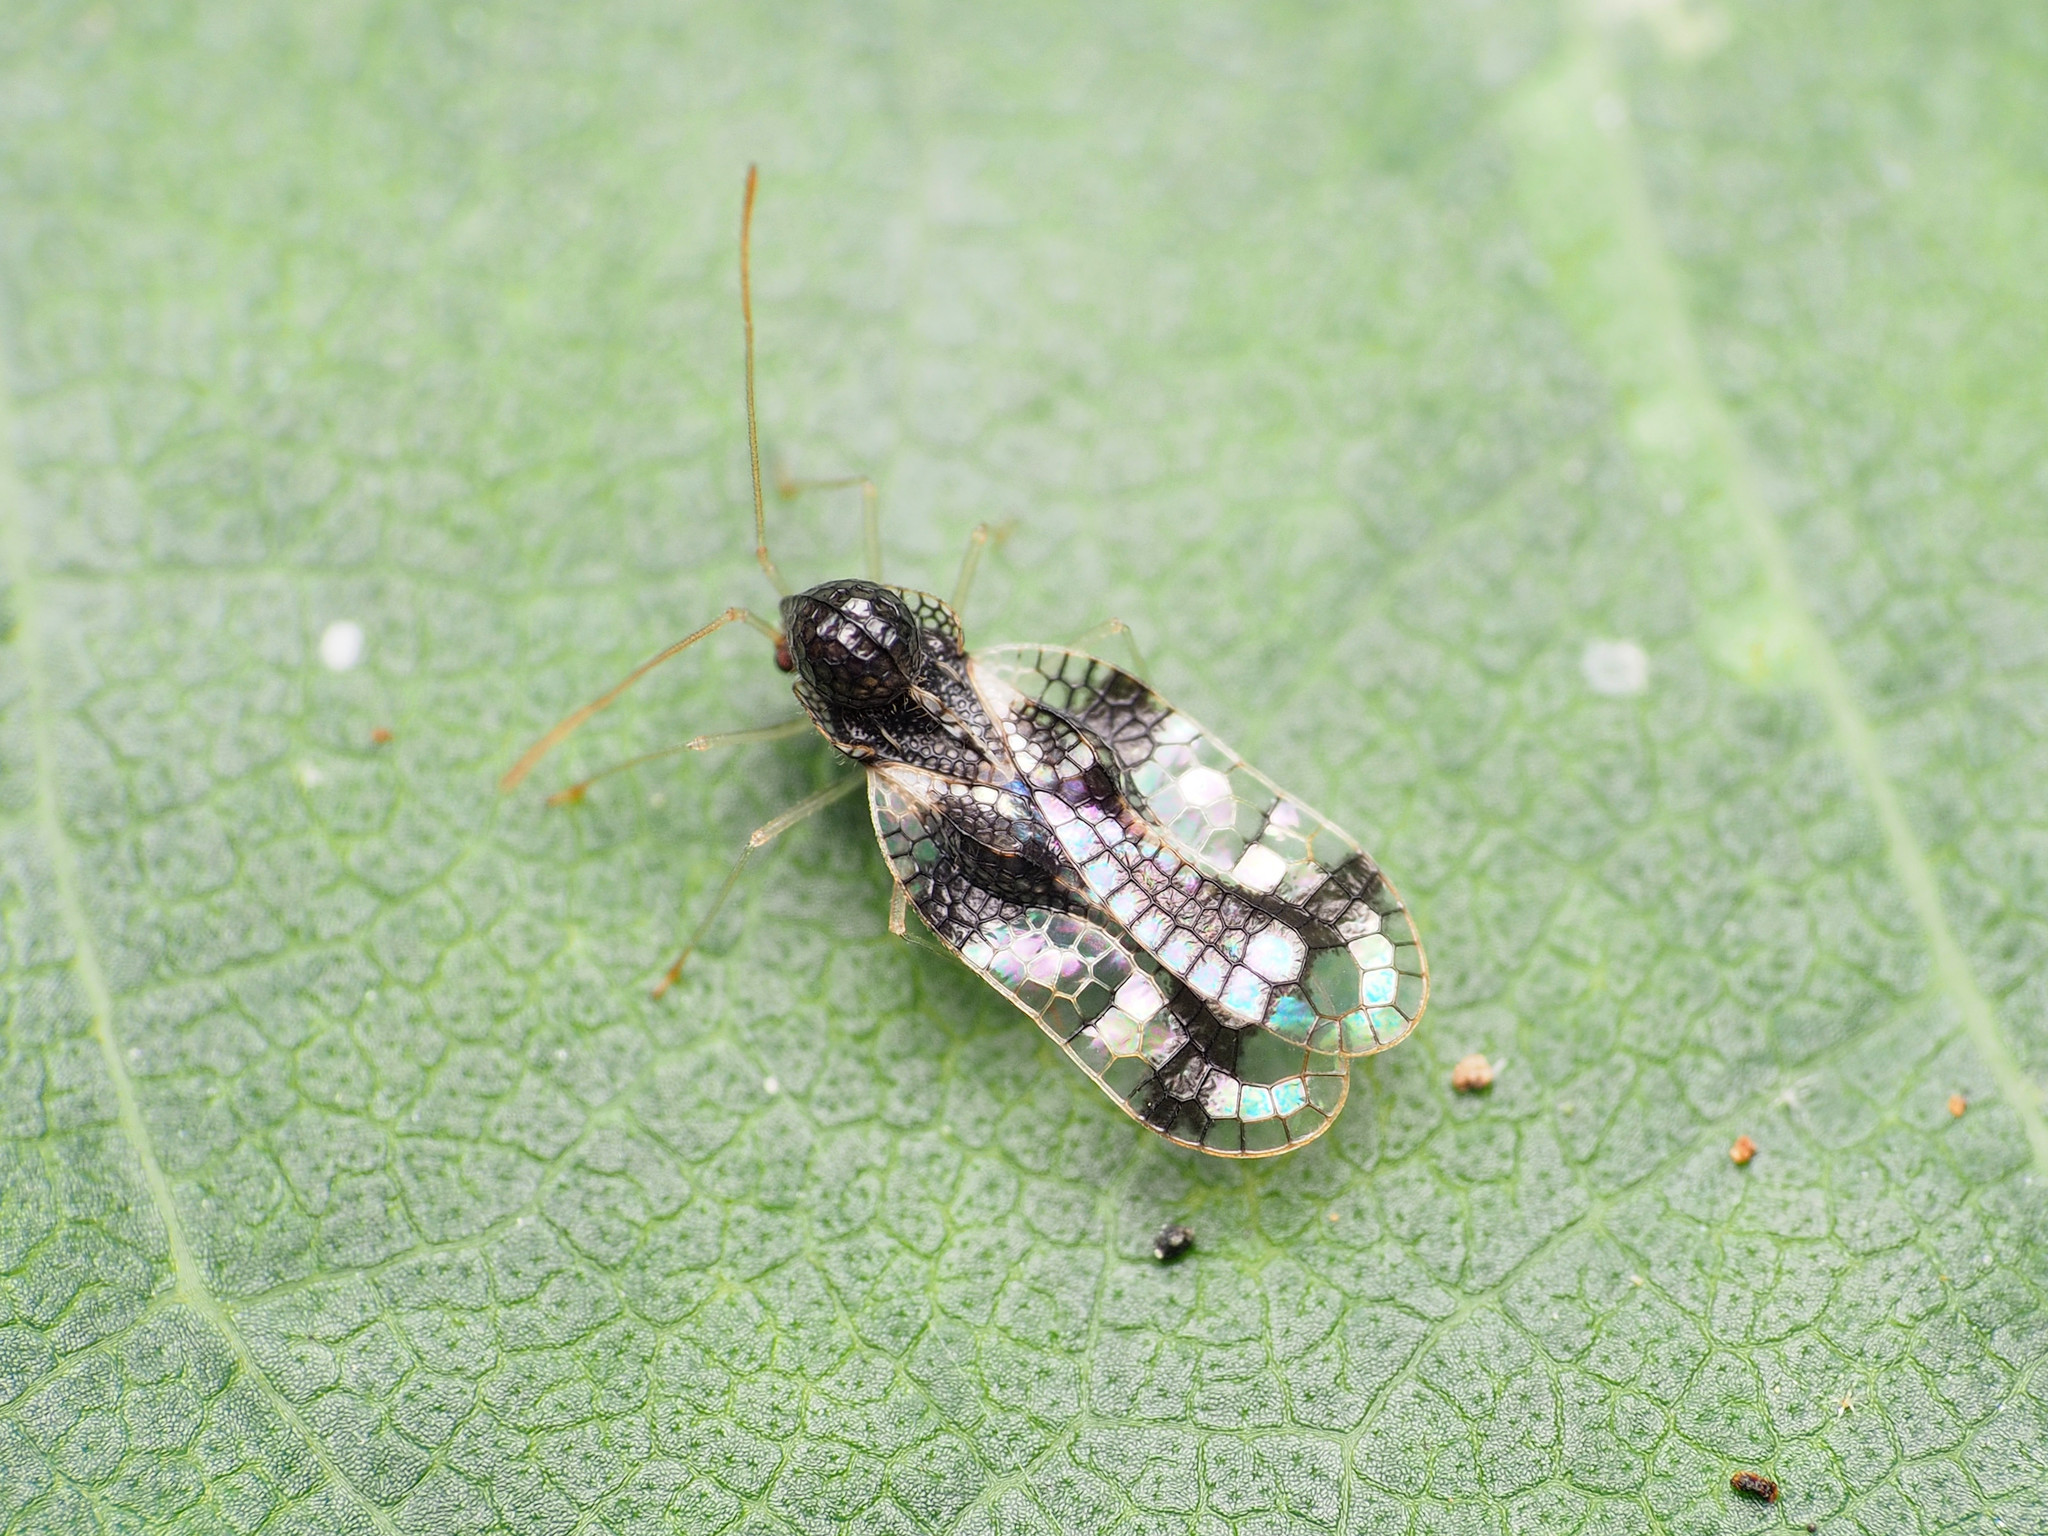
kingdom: Animalia
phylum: Arthropoda
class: Insecta
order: Hemiptera
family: Tingidae
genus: Stephanitis
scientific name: Stephanitis takeyai
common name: Andromeda lacebug
